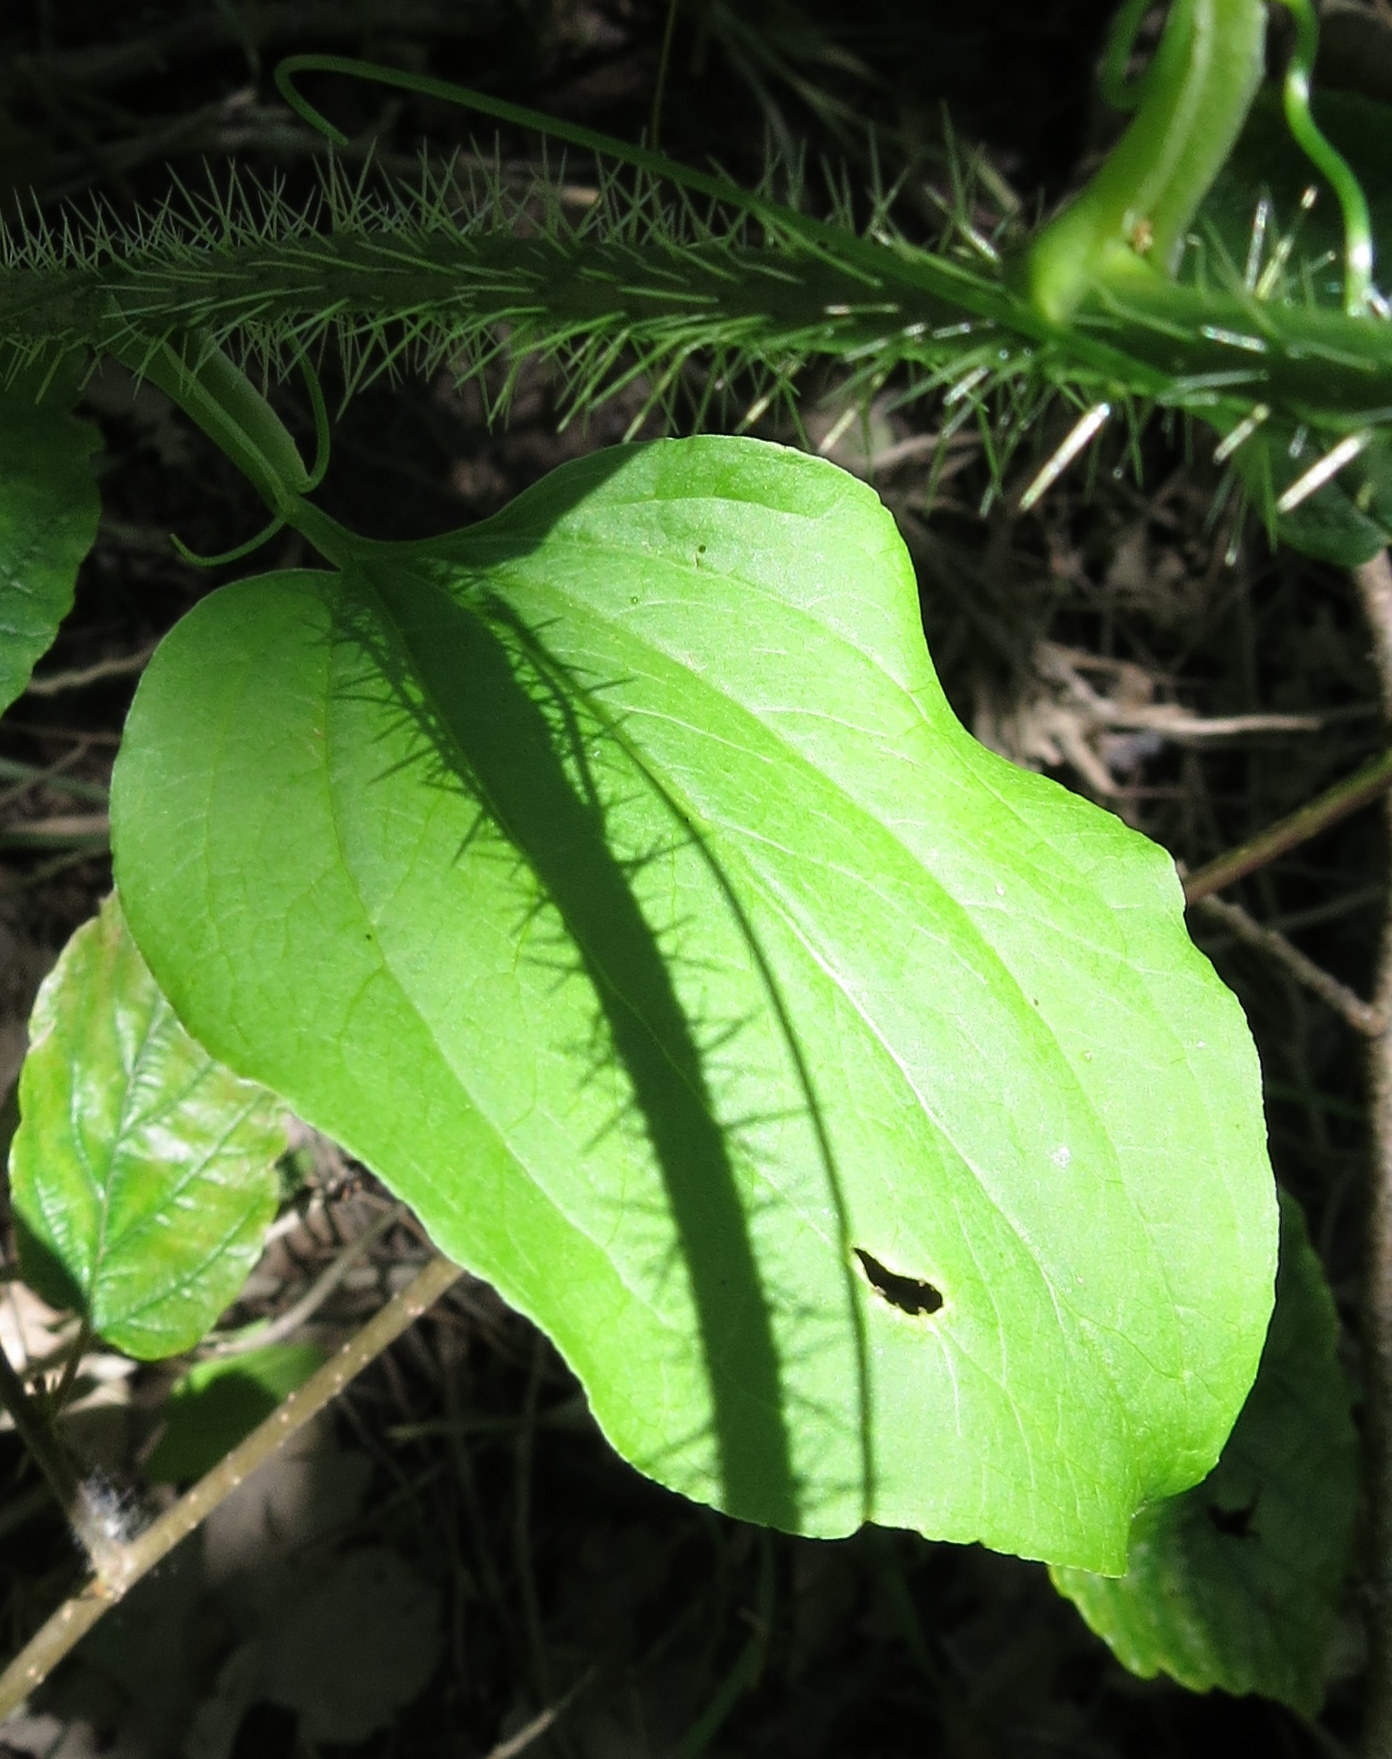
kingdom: Plantae
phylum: Tracheophyta
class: Liliopsida
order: Liliales
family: Smilacaceae
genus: Smilax
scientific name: Smilax tamnoides
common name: Hellfetter
